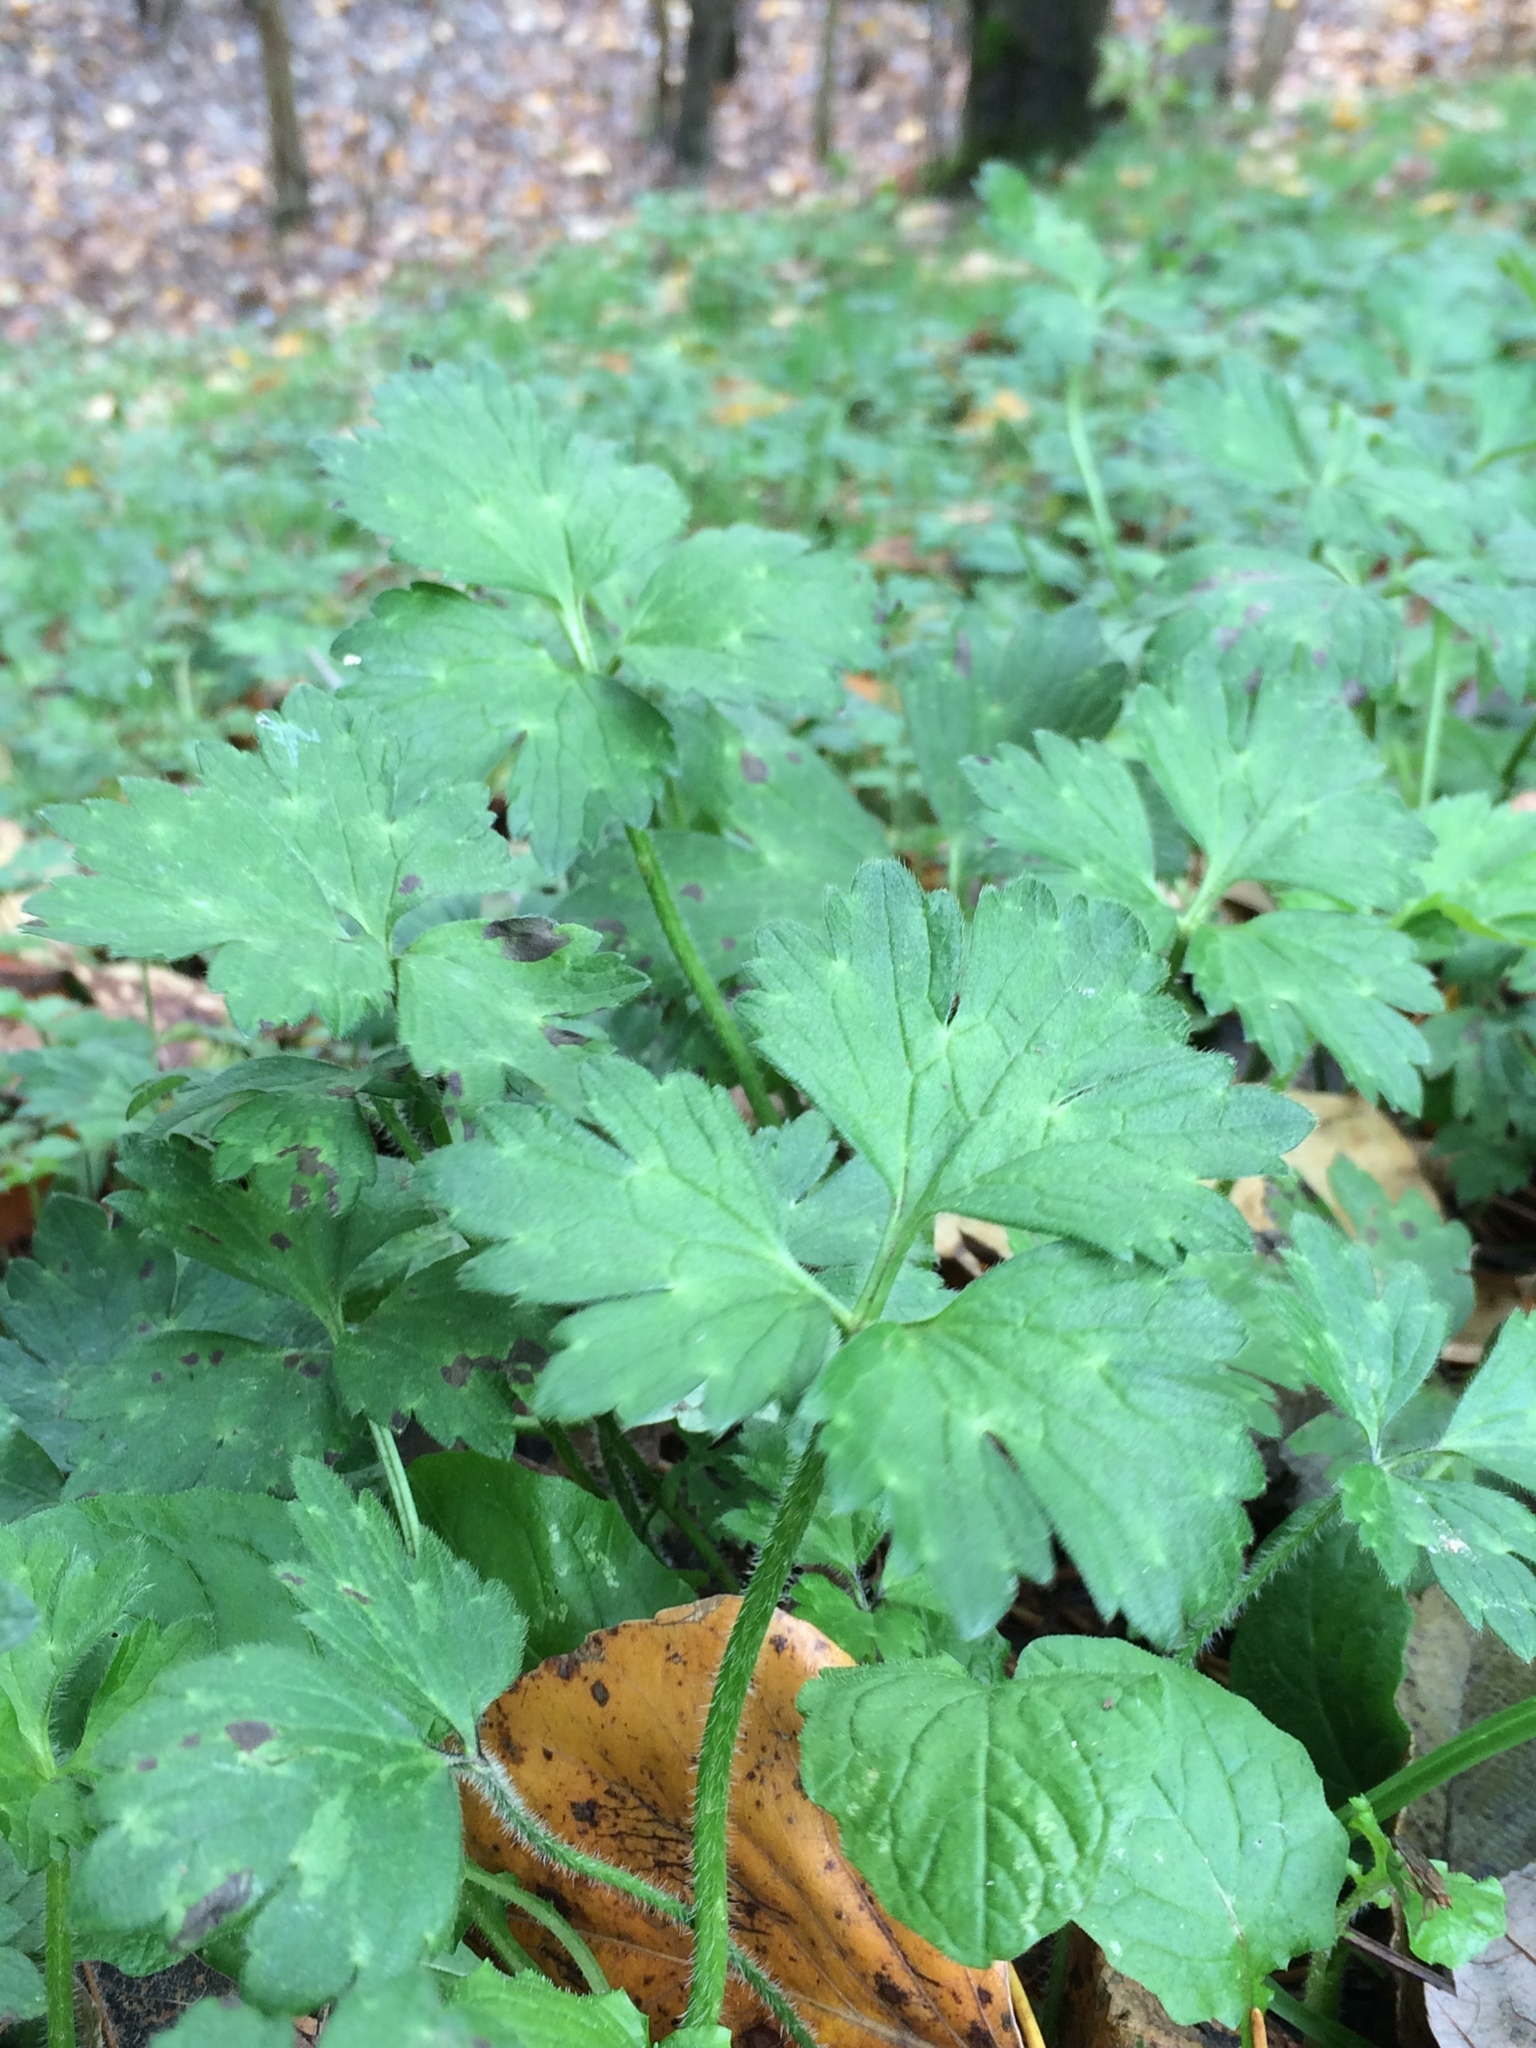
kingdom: Plantae
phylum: Tracheophyta
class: Magnoliopsida
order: Ranunculales
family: Ranunculaceae
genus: Ranunculus
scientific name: Ranunculus repens
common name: Creeping buttercup
